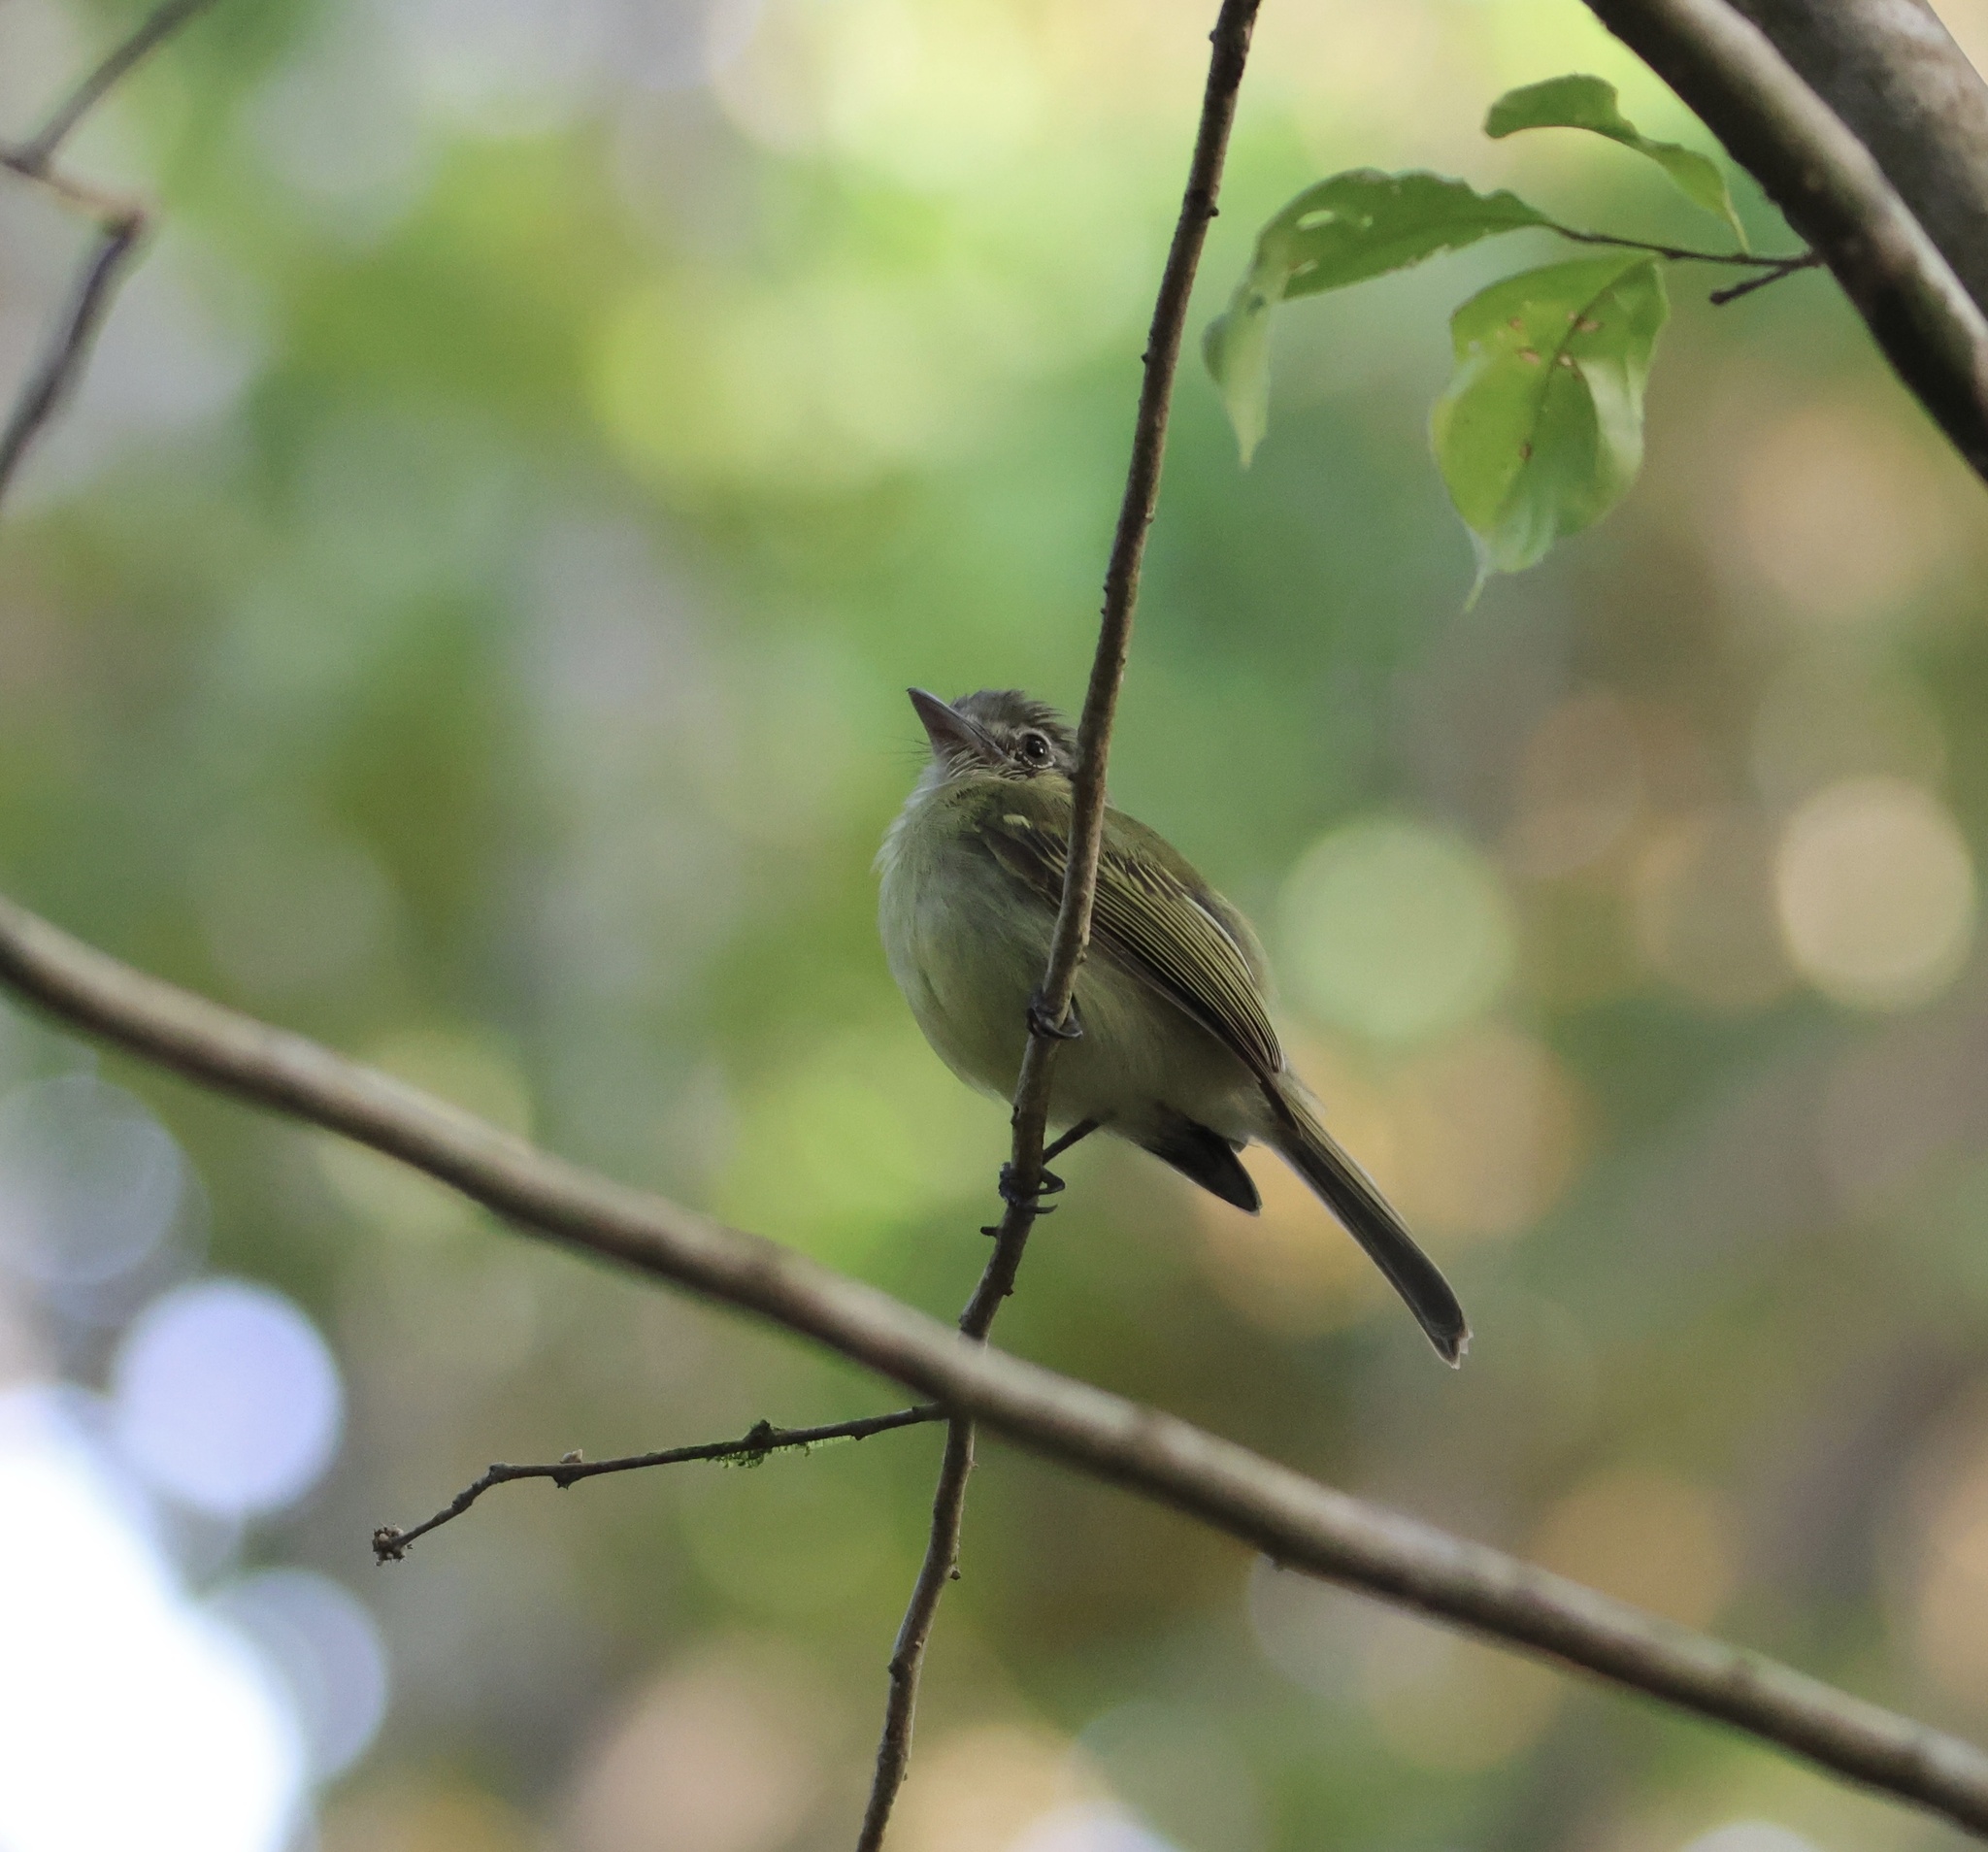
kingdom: Animalia
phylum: Chordata
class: Aves
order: Passeriformes
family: Tyrannidae
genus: Tolmomyias
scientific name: Tolmomyias sulphurescens
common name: Yellow-olive flycatcher
